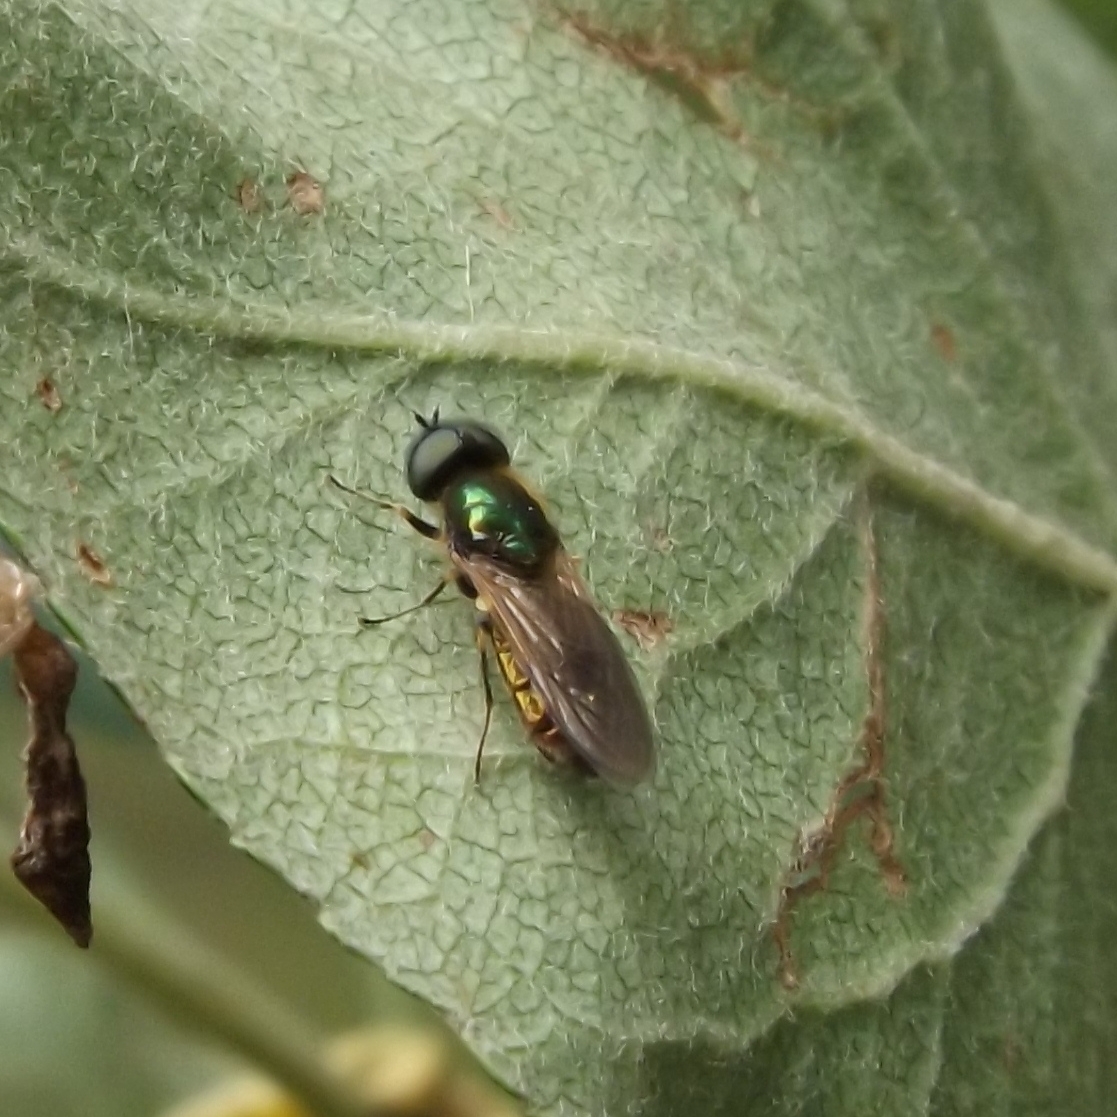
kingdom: Animalia
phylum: Arthropoda
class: Insecta
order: Diptera
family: Stratiomyidae
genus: Chloromyia
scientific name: Chloromyia formosa
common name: Soldier fly
